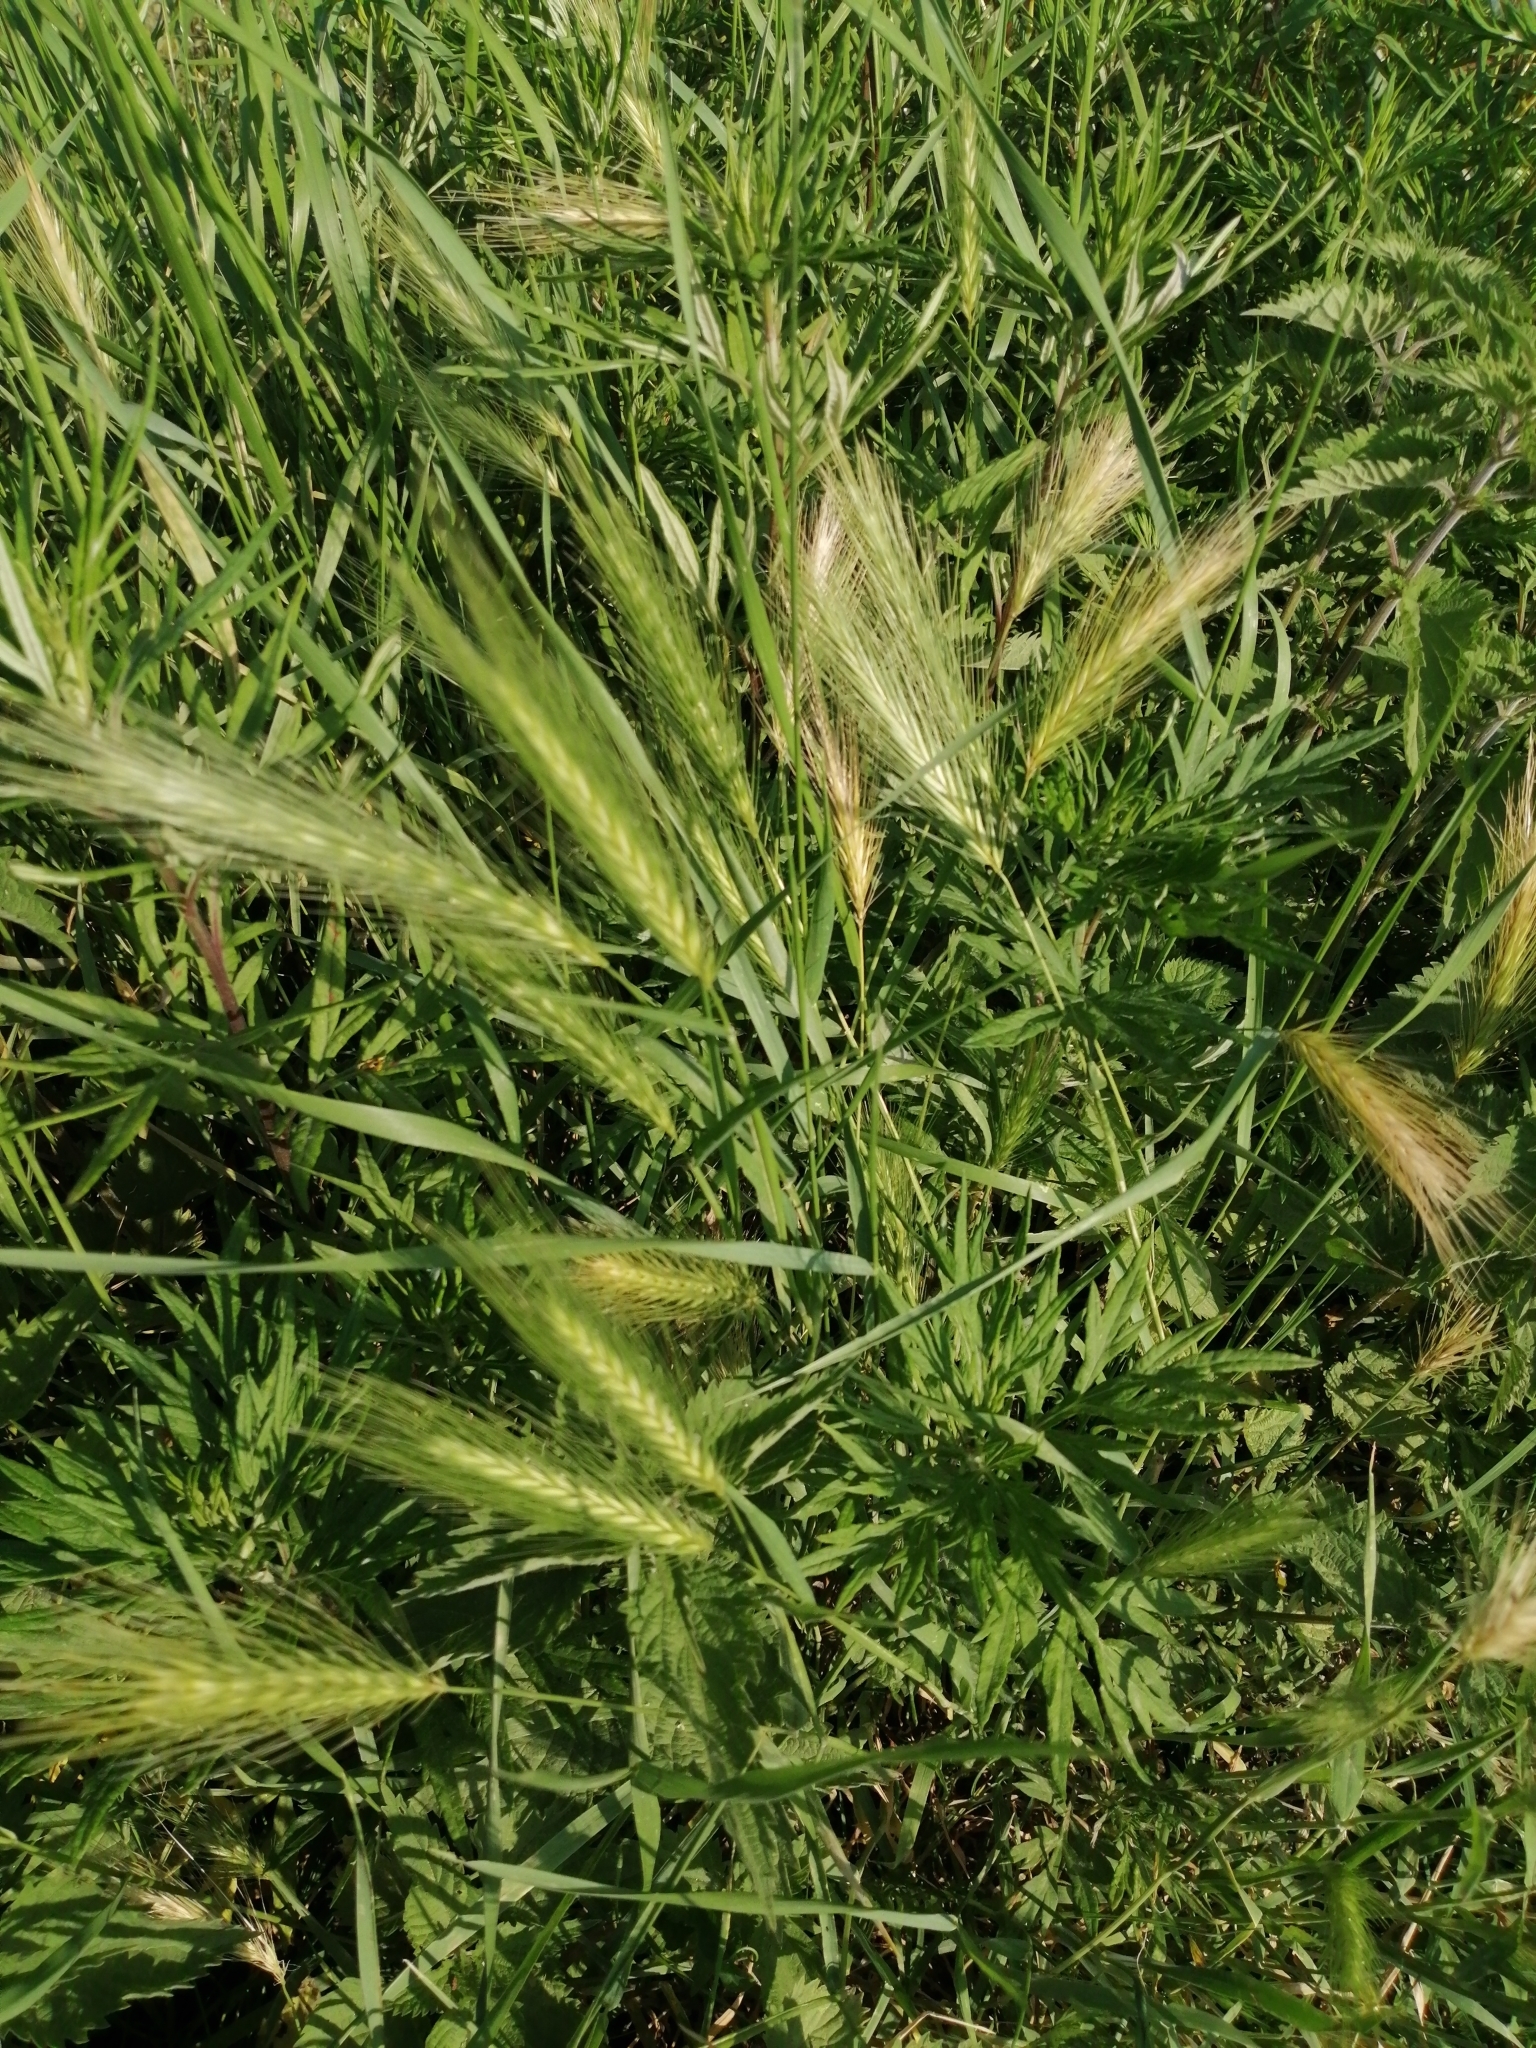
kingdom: Plantae
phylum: Tracheophyta
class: Liliopsida
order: Poales
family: Poaceae
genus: Hordeum
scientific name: Hordeum murinum
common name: Wall barley
